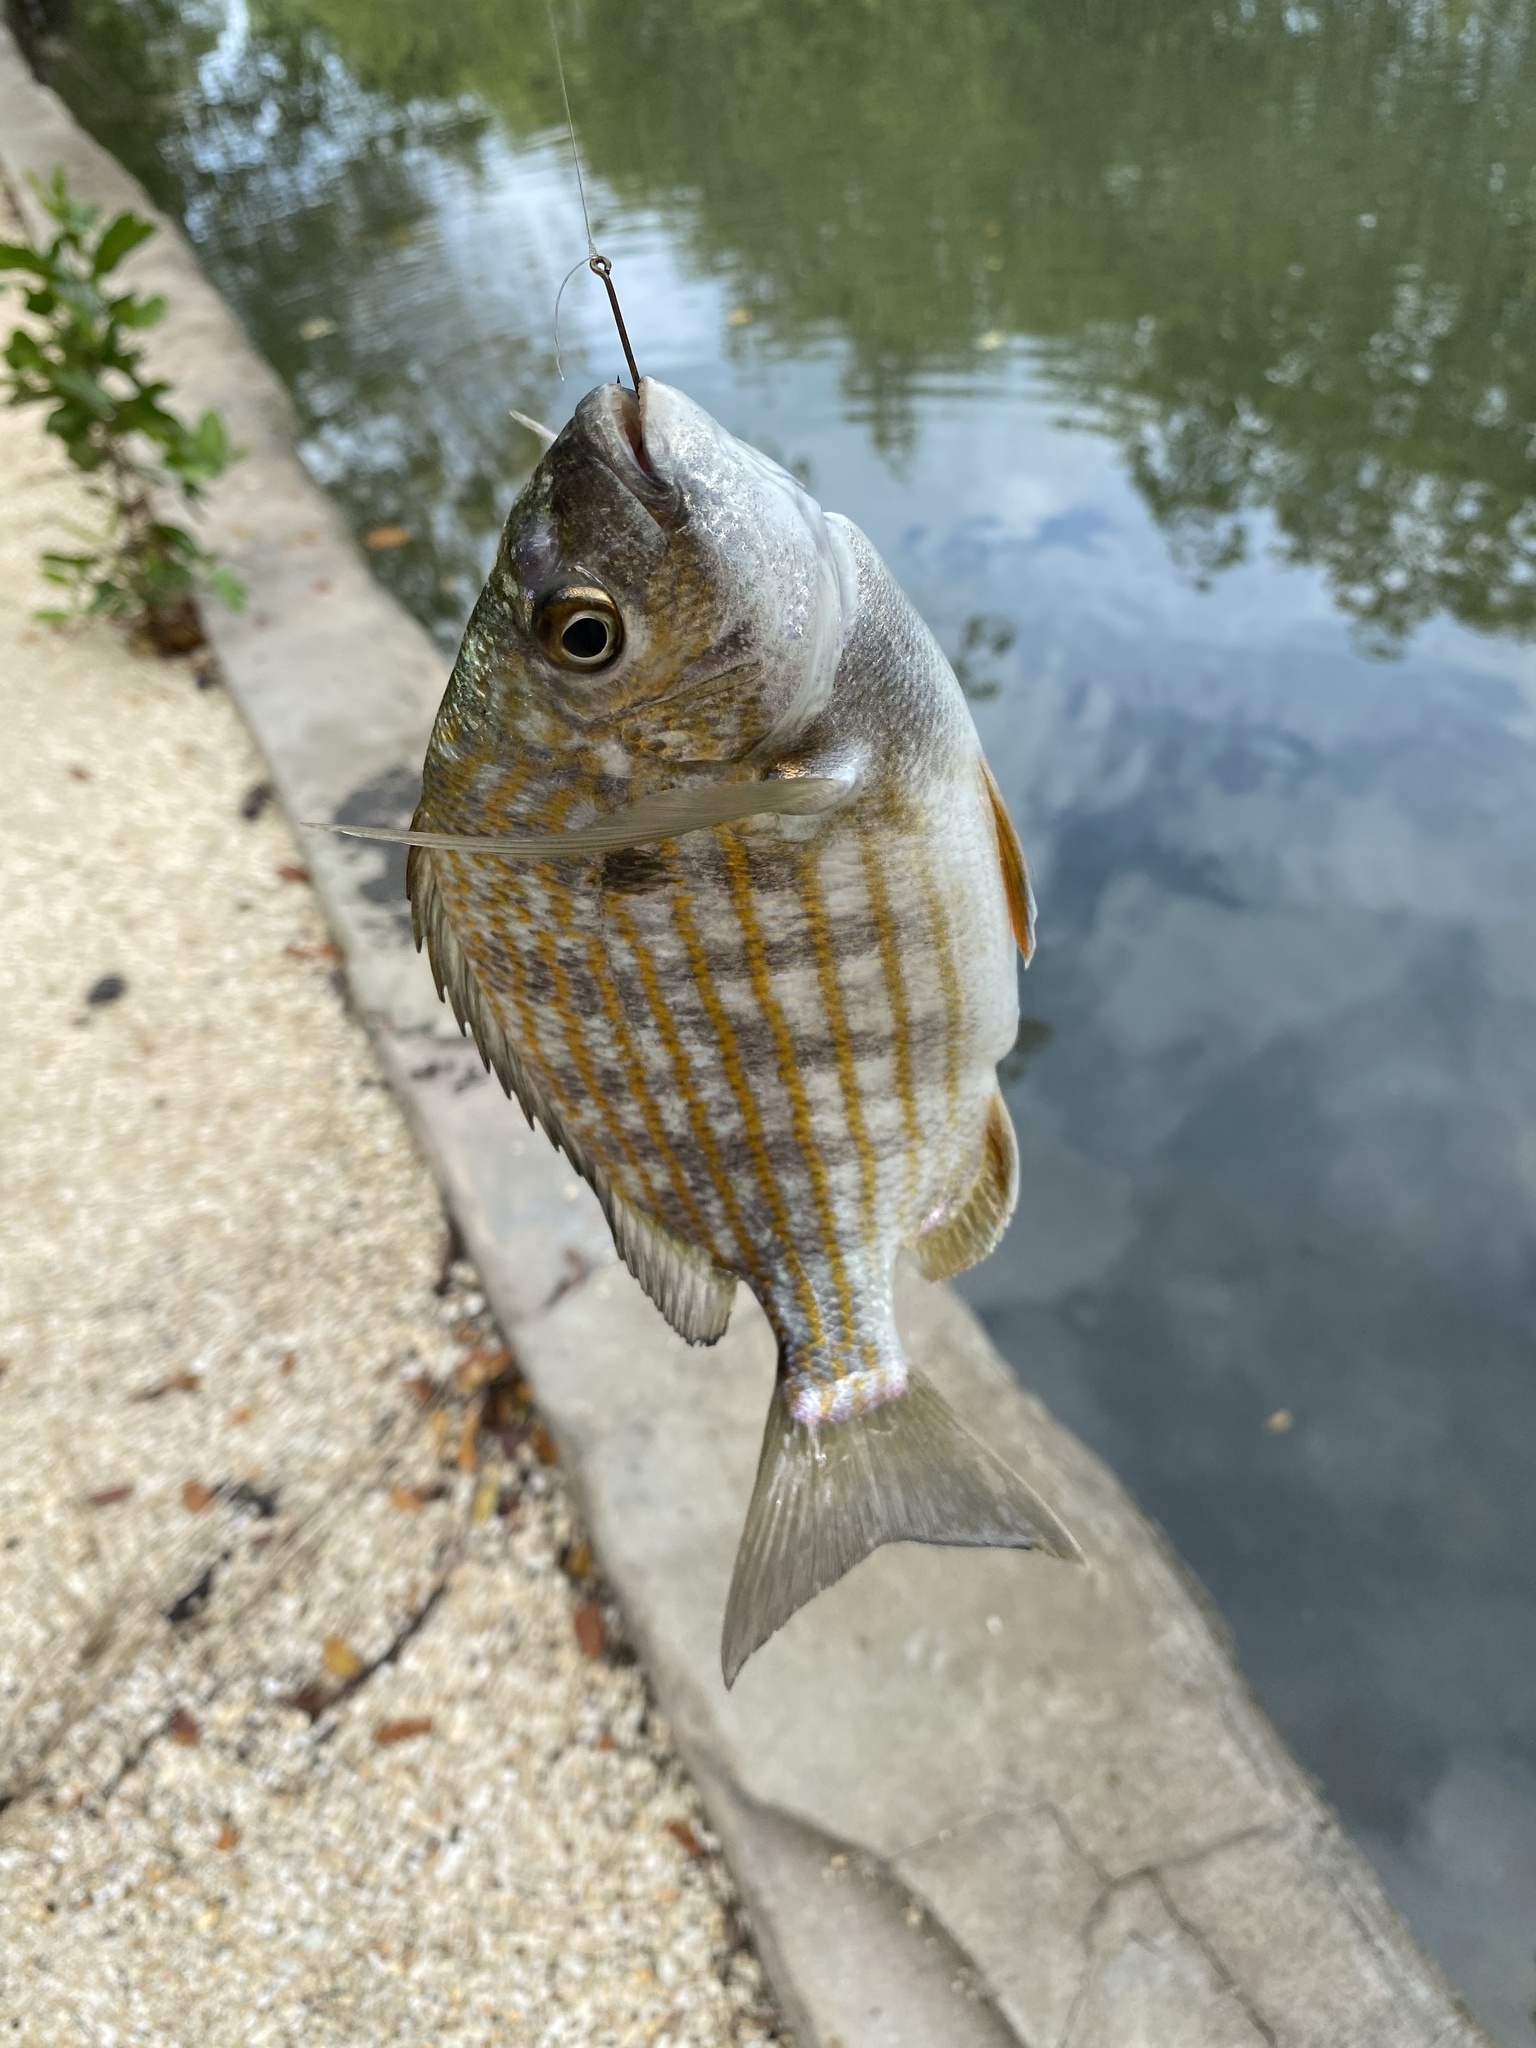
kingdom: Animalia
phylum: Chordata
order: Perciformes
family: Sparidae
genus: Archosargus
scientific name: Archosargus rhomboidalis
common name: Sea bream
